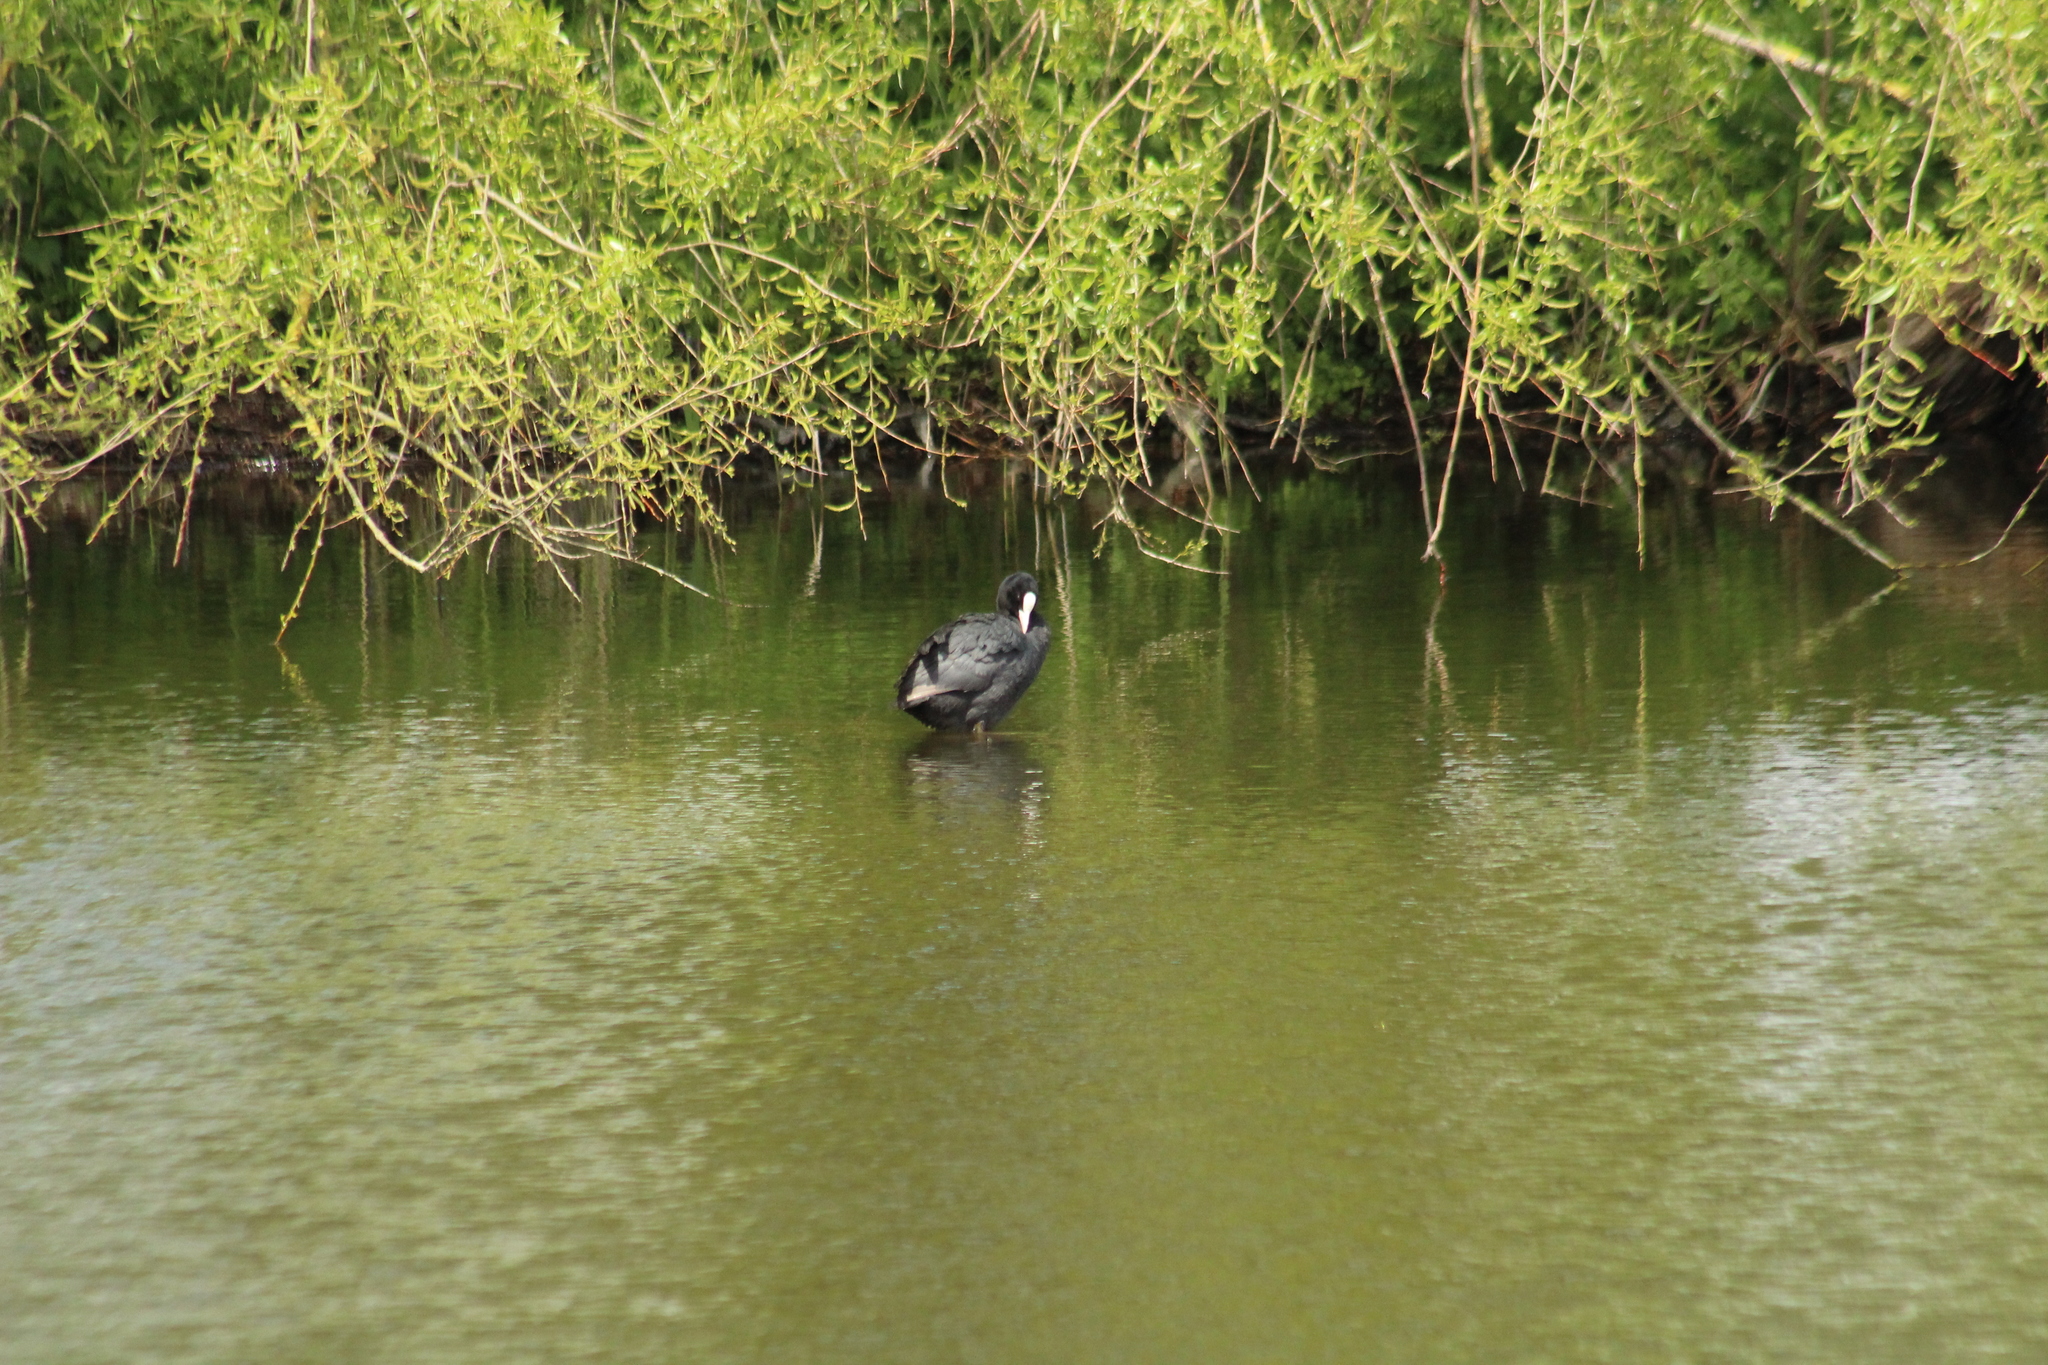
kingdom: Animalia
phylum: Chordata
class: Aves
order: Gruiformes
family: Rallidae
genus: Fulica
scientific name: Fulica atra
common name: Eurasian coot
